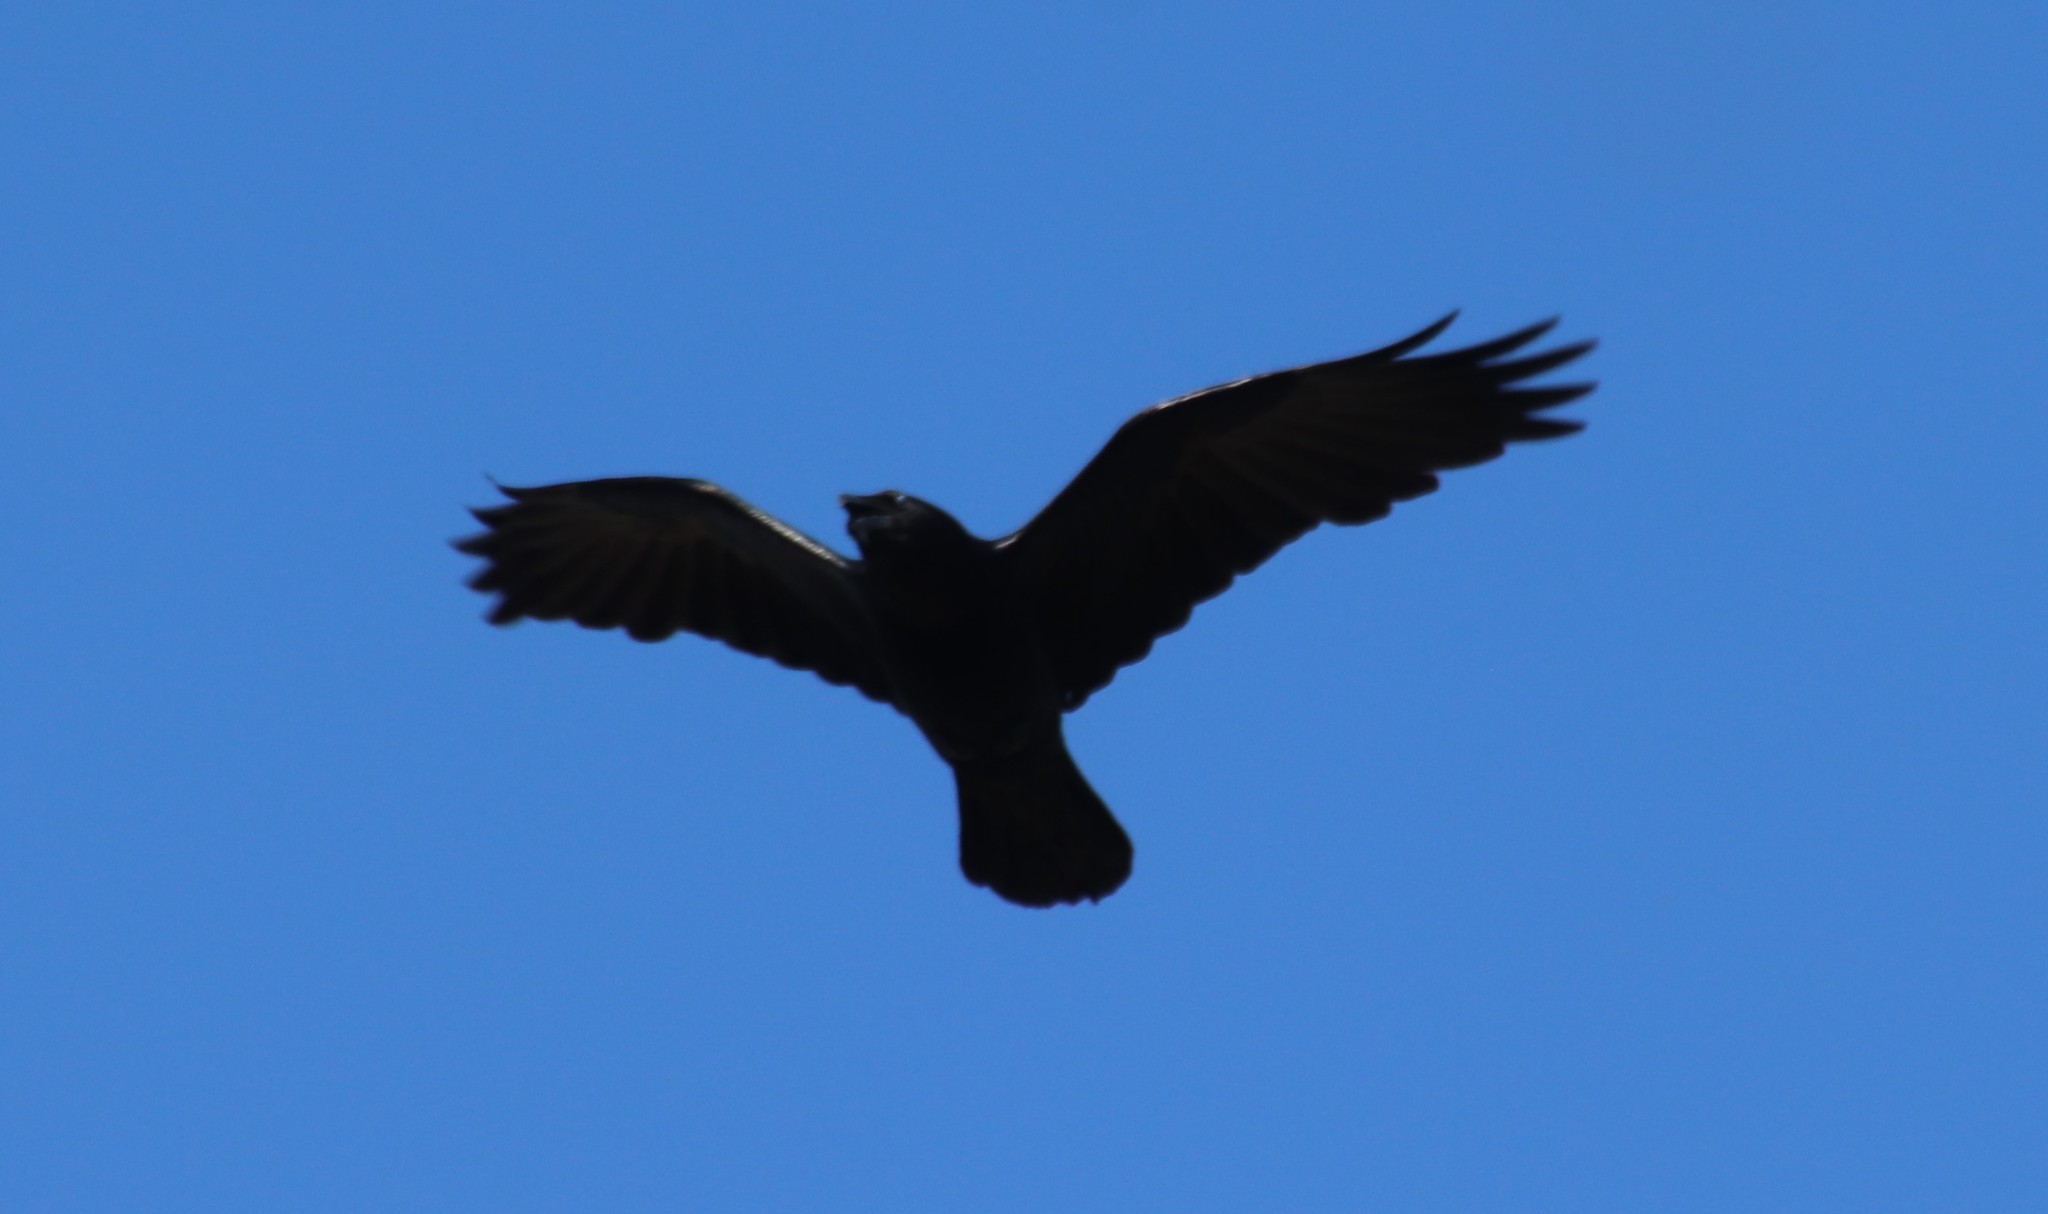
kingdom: Animalia
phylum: Chordata
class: Aves
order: Passeriformes
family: Corvidae
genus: Corvus
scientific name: Corvus corax
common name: Common raven
